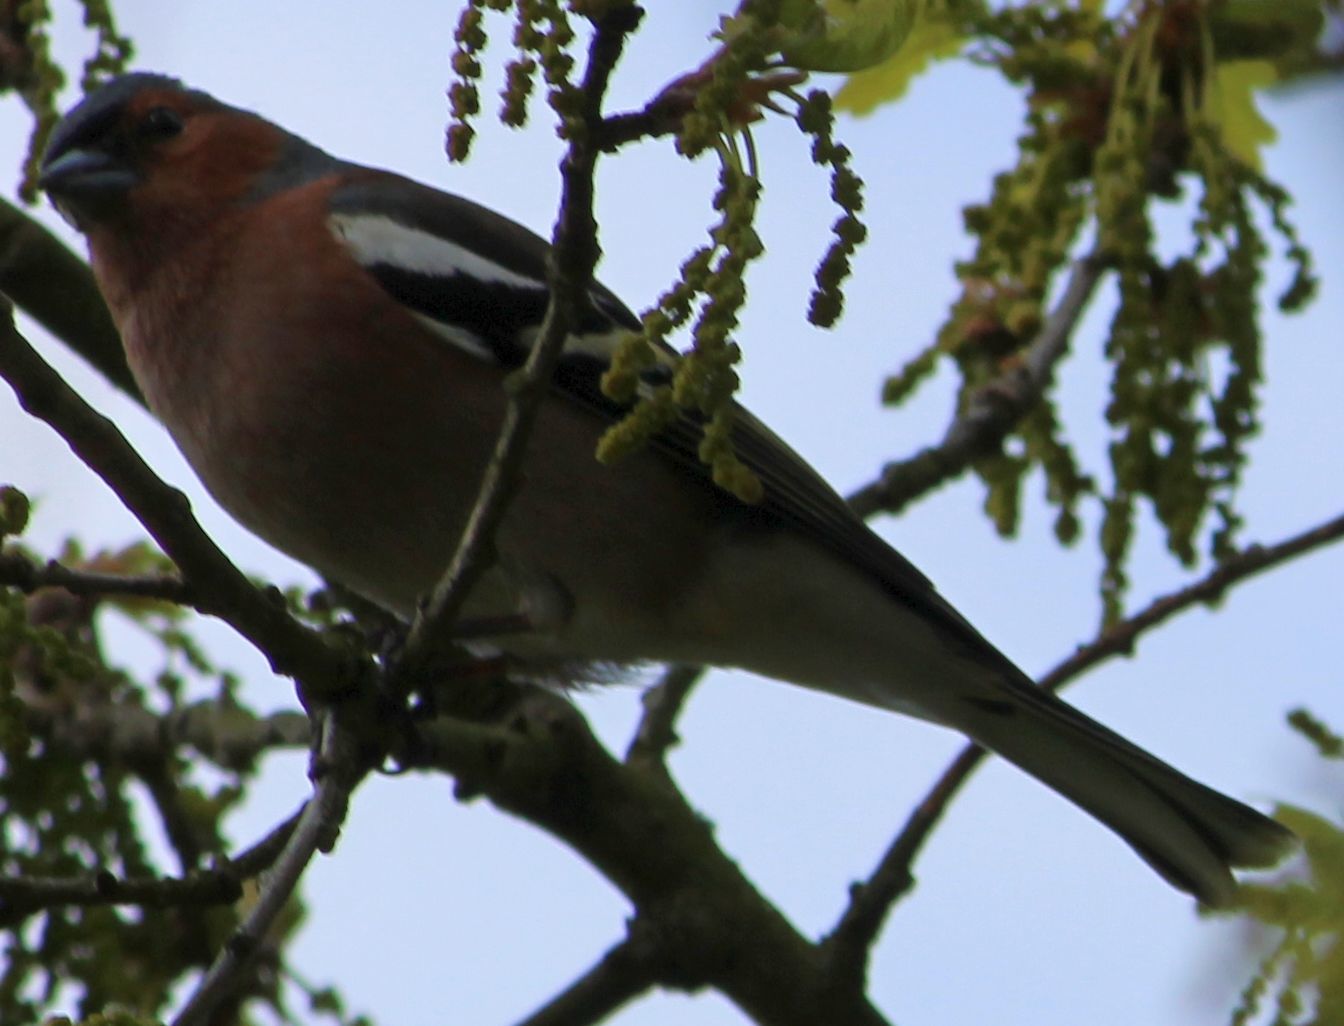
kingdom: Animalia
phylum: Chordata
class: Aves
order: Passeriformes
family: Fringillidae
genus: Fringilla
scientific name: Fringilla coelebs
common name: Common chaffinch
